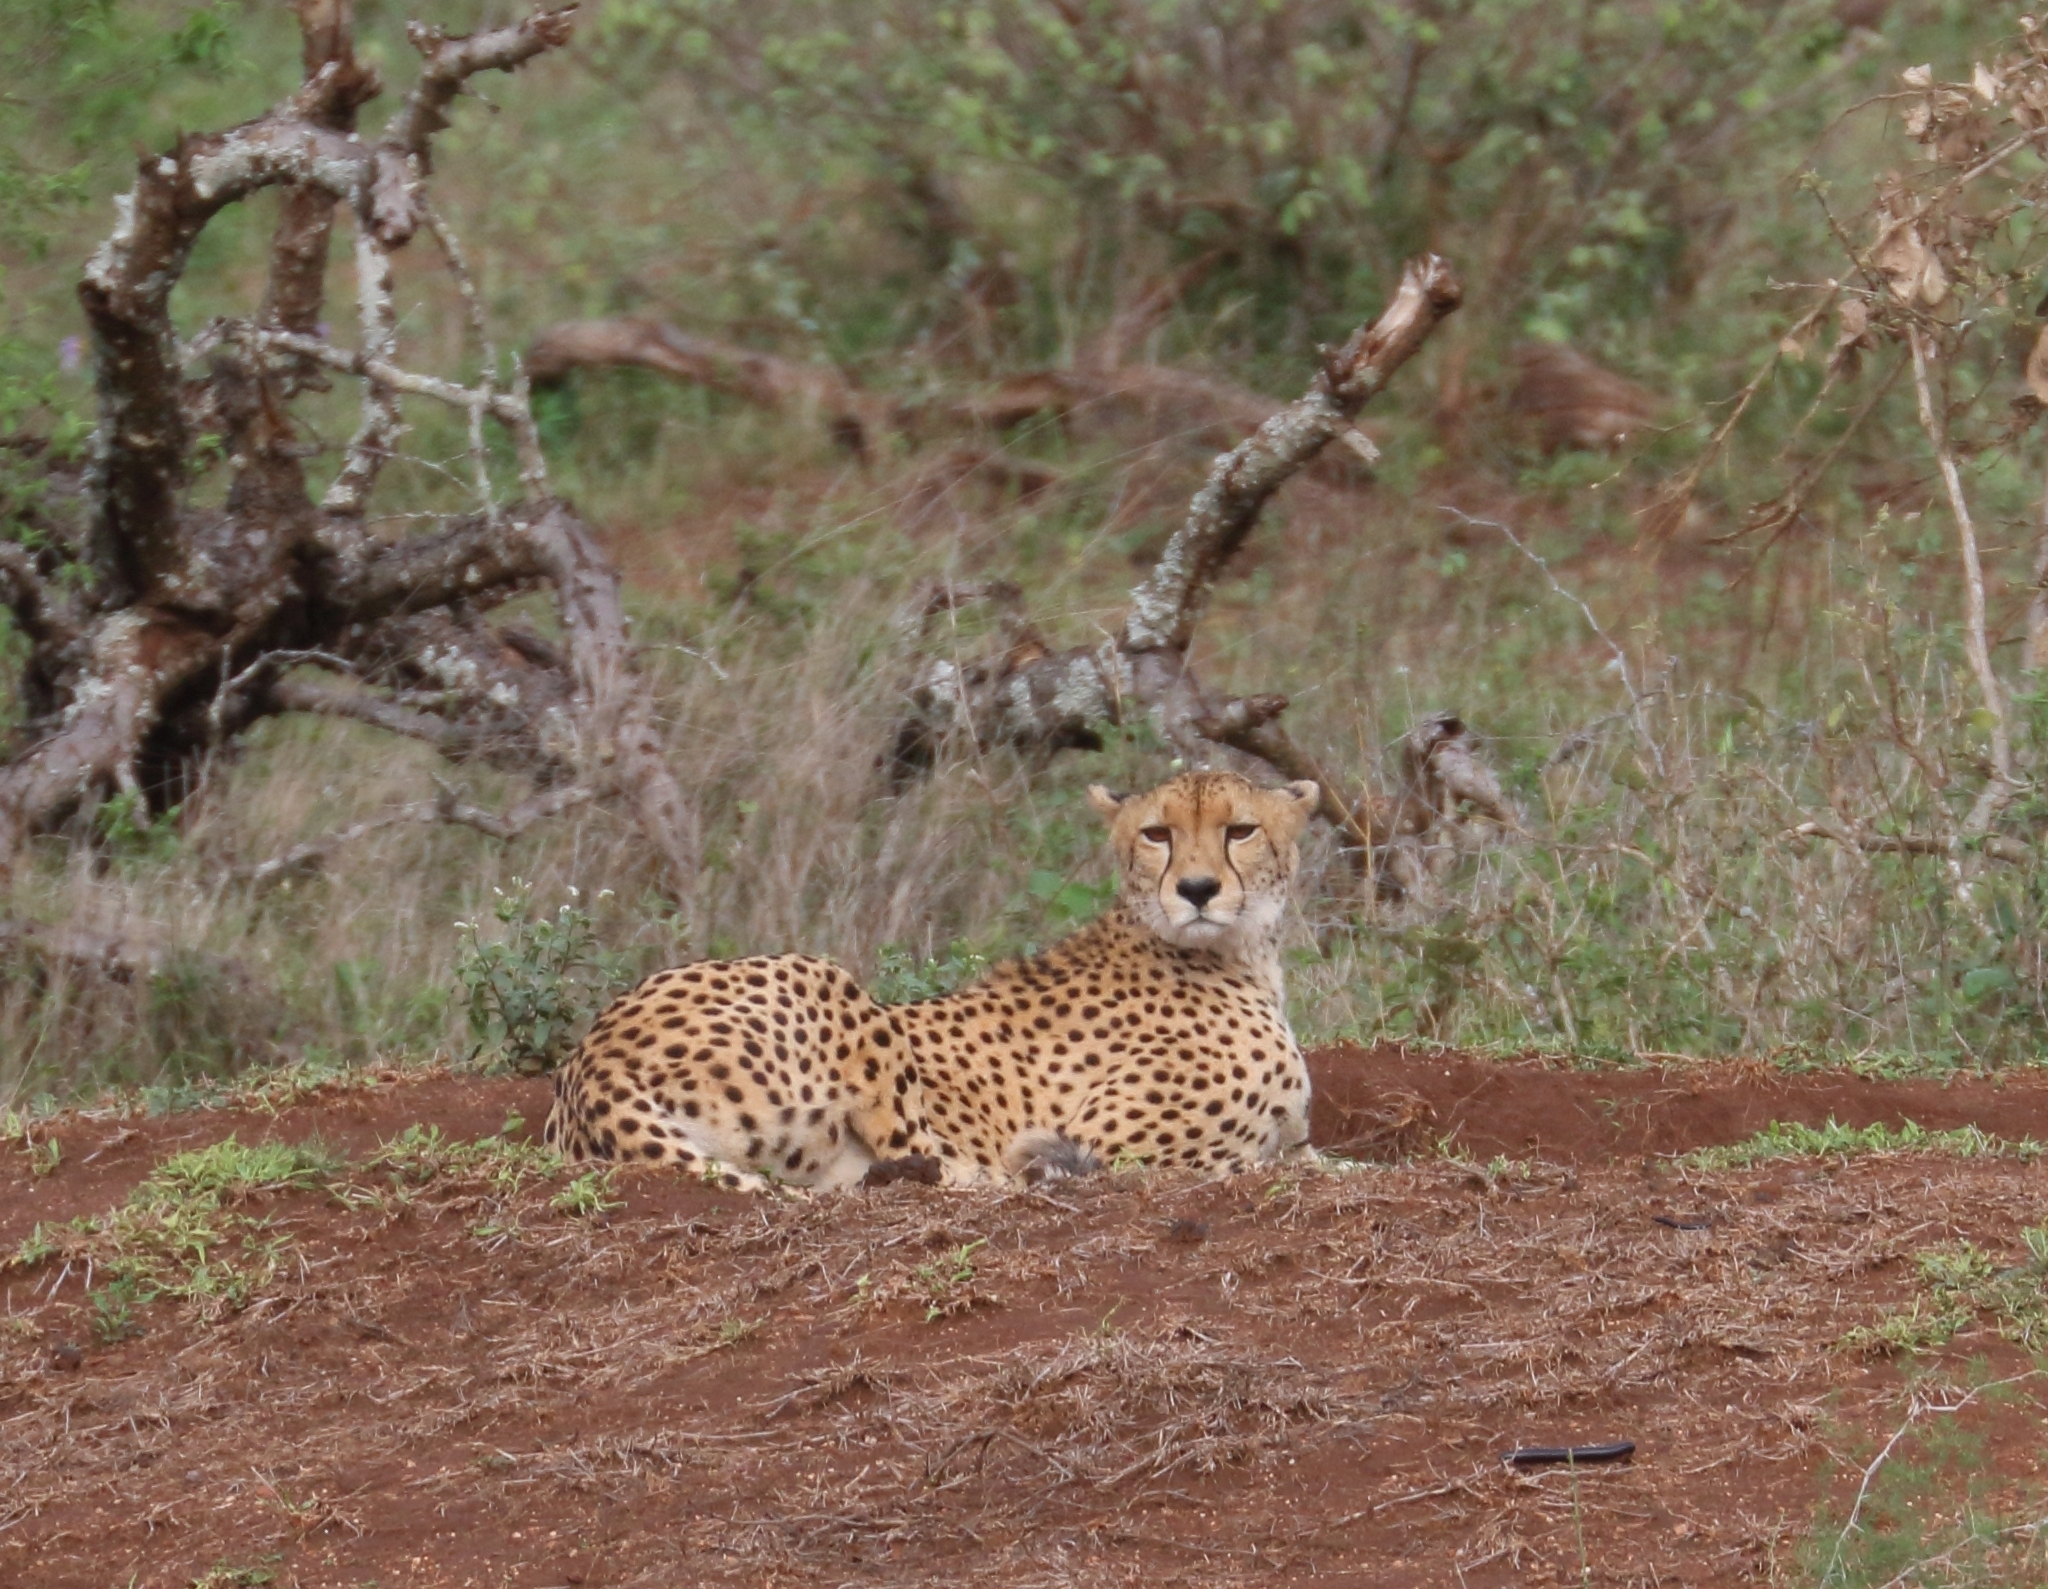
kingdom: Animalia
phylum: Chordata
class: Mammalia
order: Carnivora
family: Felidae
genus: Acinonyx
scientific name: Acinonyx jubatus
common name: Cheetah
